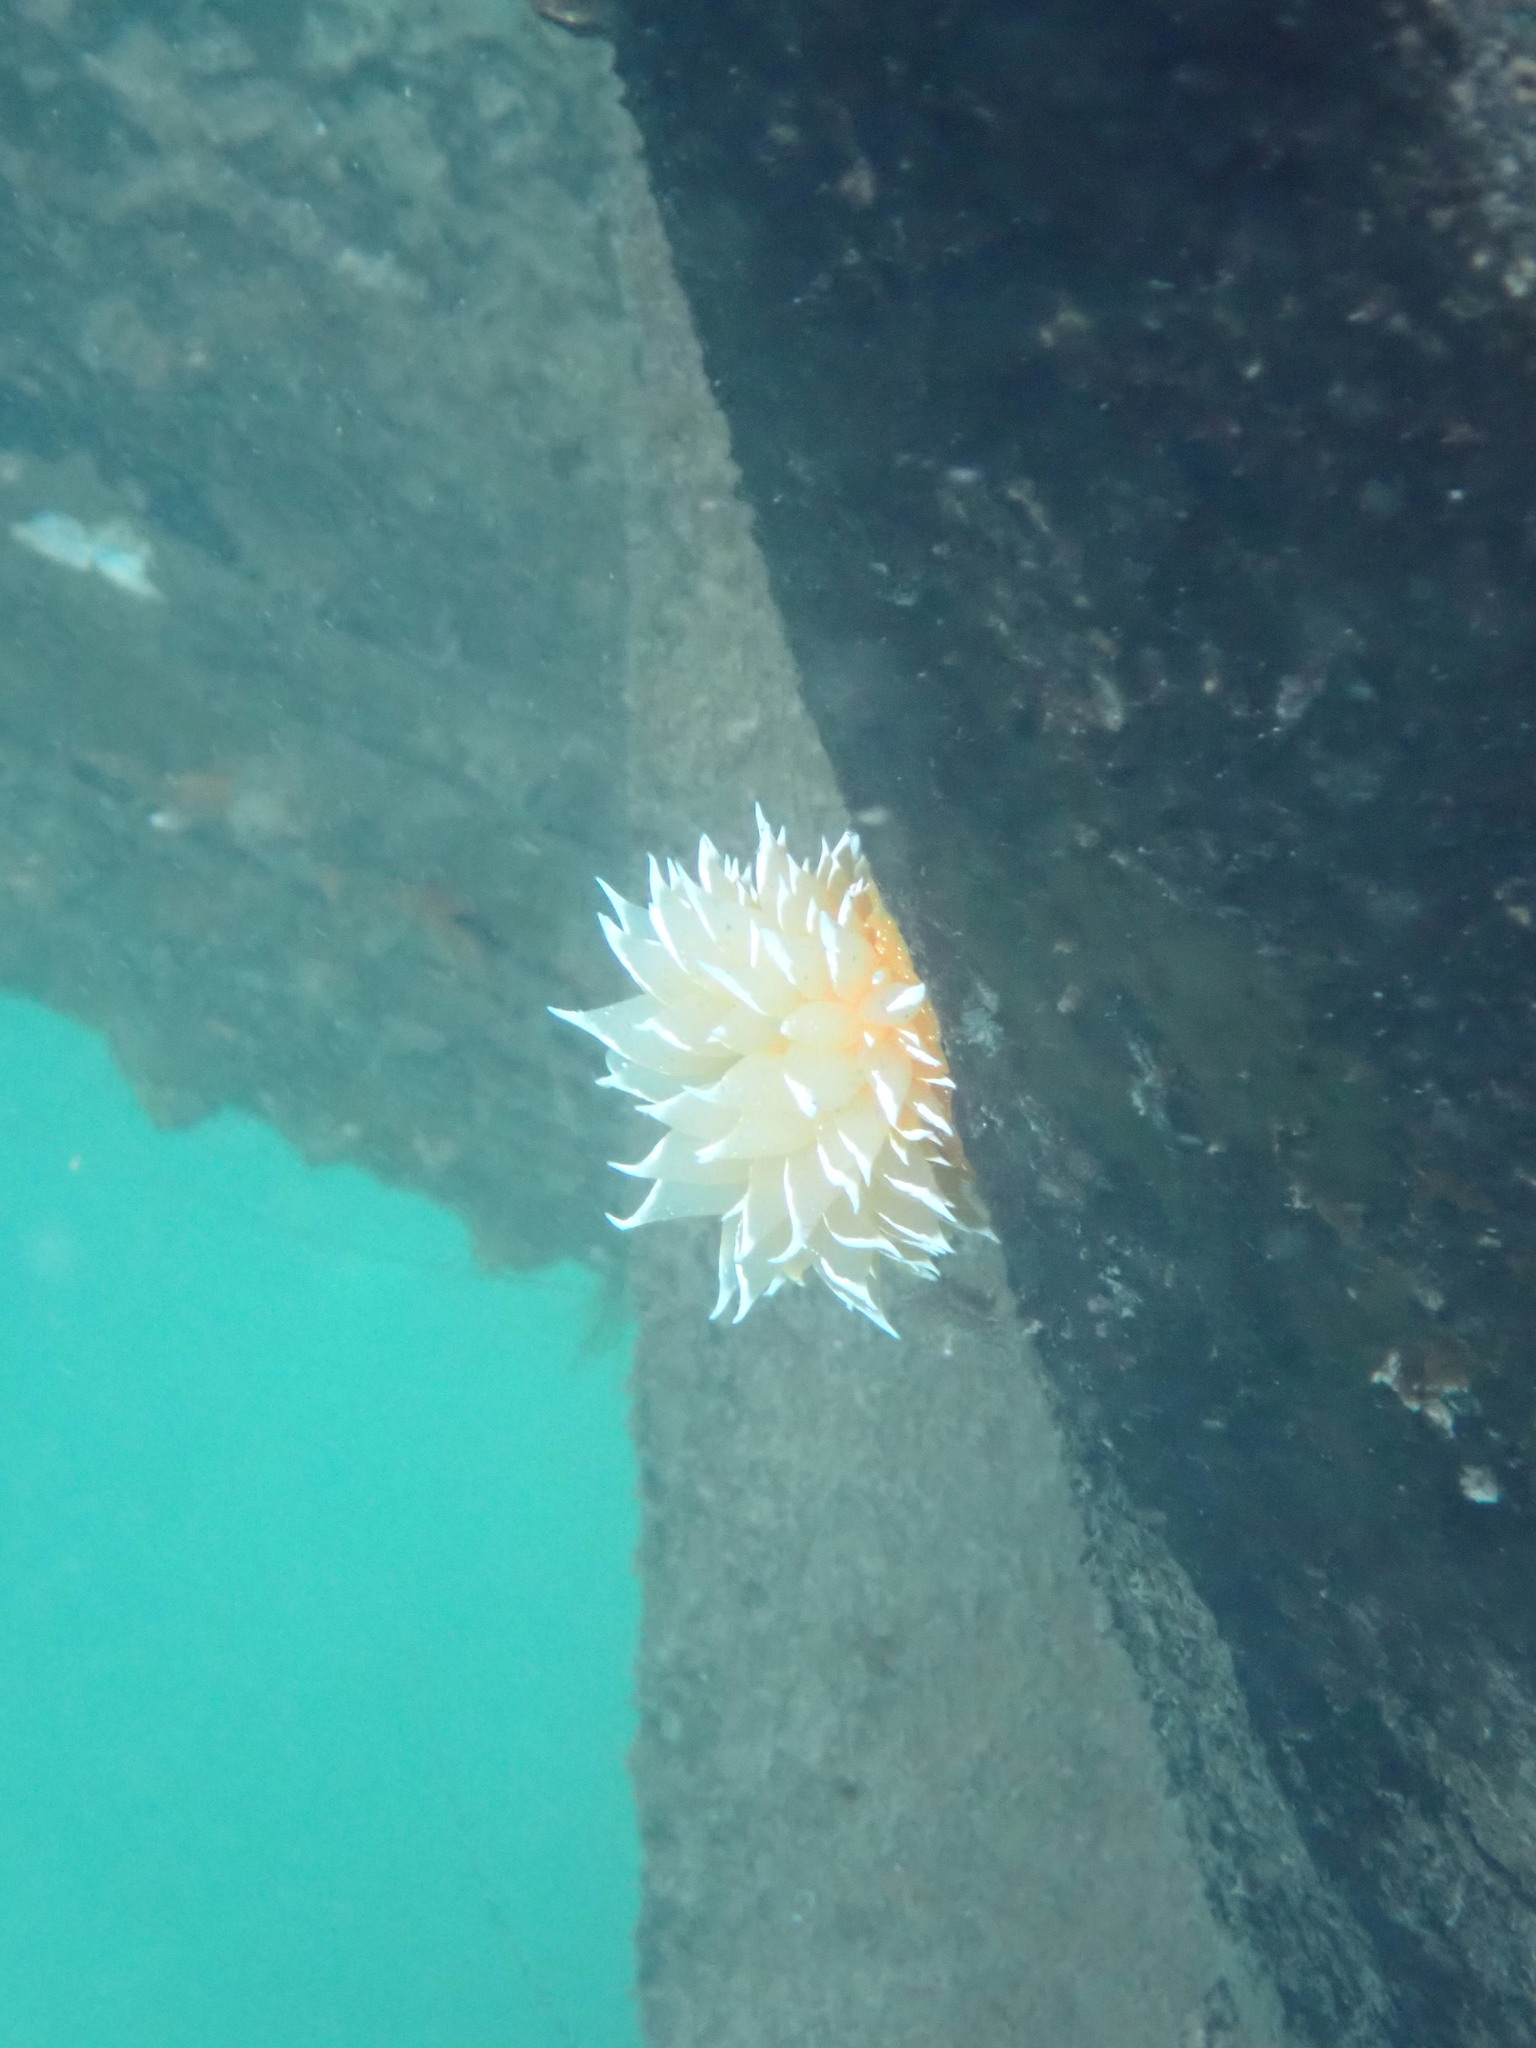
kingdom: Animalia
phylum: Mollusca
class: Gastropoda
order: Nudibranchia
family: Dironidae
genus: Dirona
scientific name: Dirona pellucida
